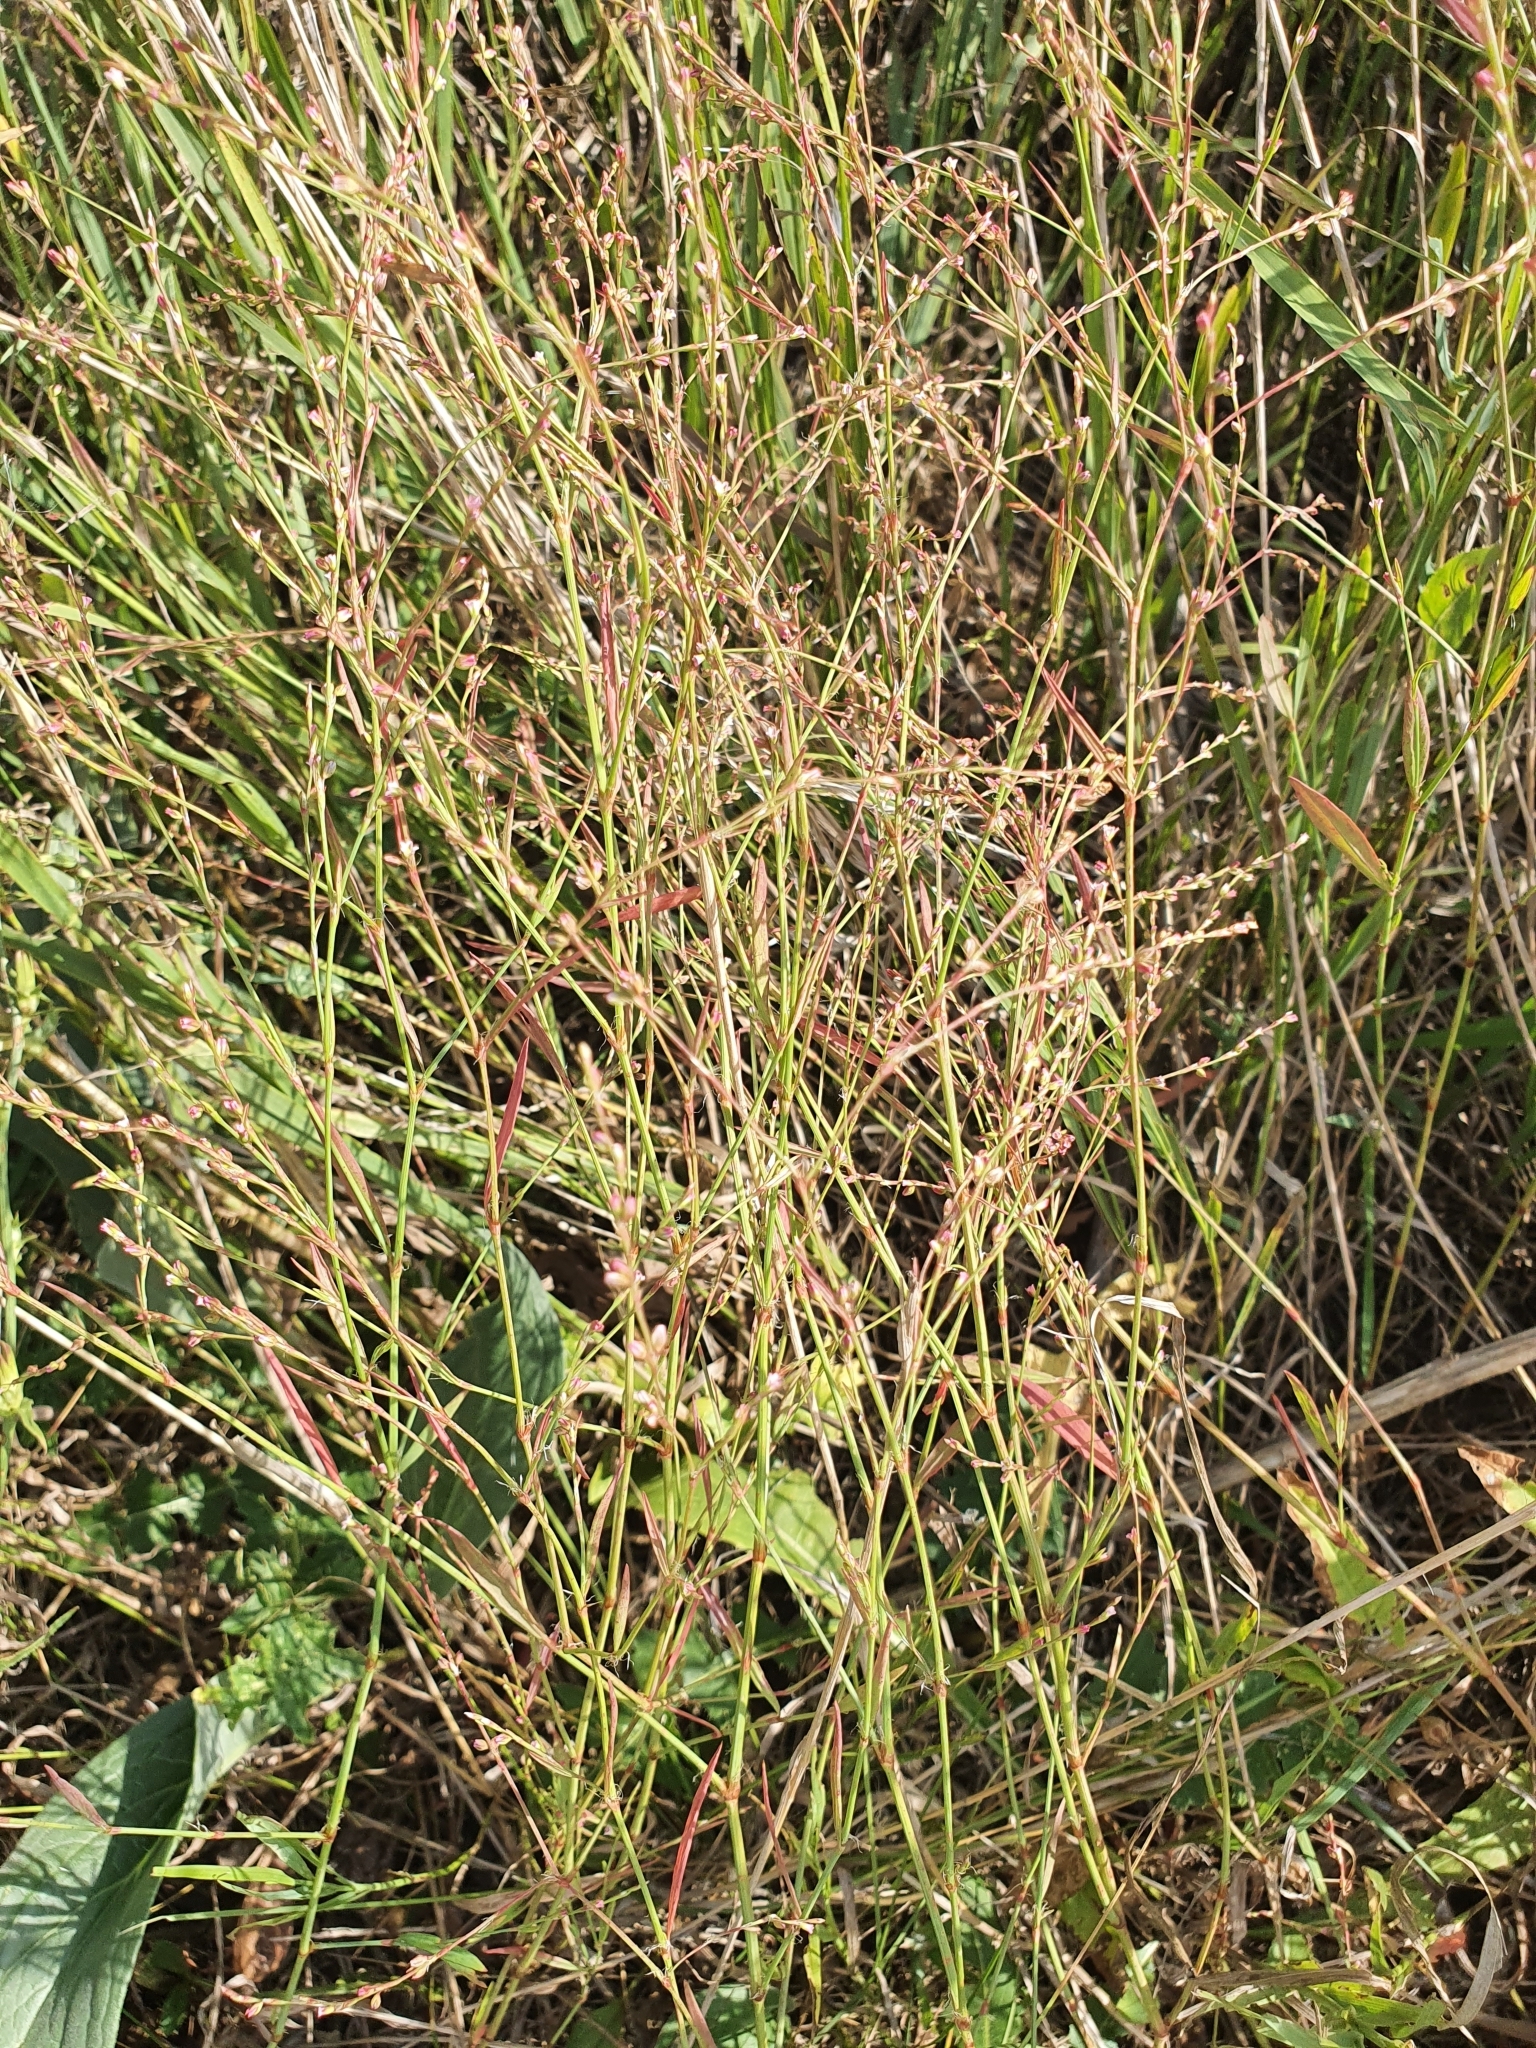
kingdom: Plantae
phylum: Tracheophyta
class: Magnoliopsida
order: Caryophyllales
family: Polygonaceae
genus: Polygonum
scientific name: Polygonum patulum
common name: Red-knotgrass
